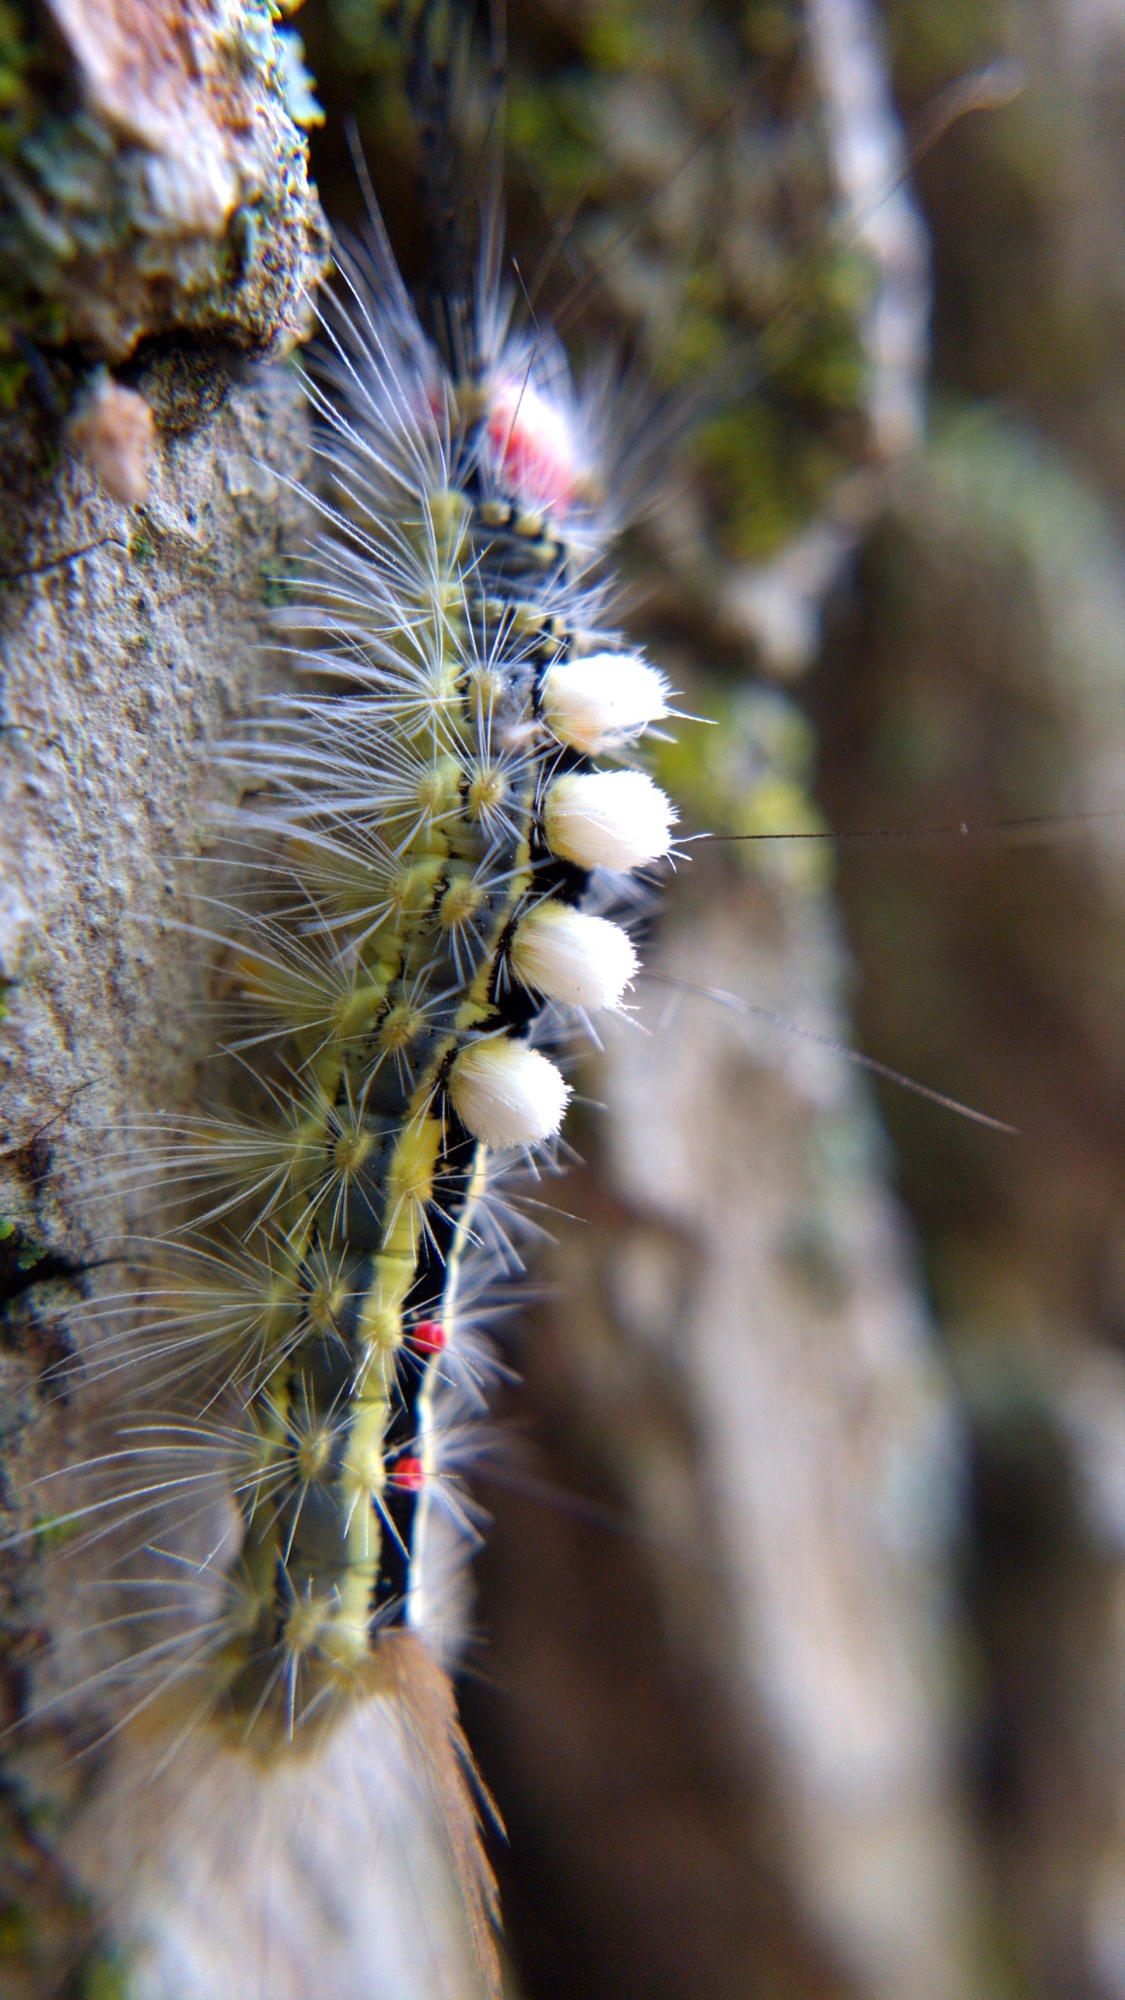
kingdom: Animalia
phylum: Arthropoda
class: Insecta
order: Lepidoptera
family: Erebidae
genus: Orgyia
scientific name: Orgyia leucostigma
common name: White-marked tussock moth
